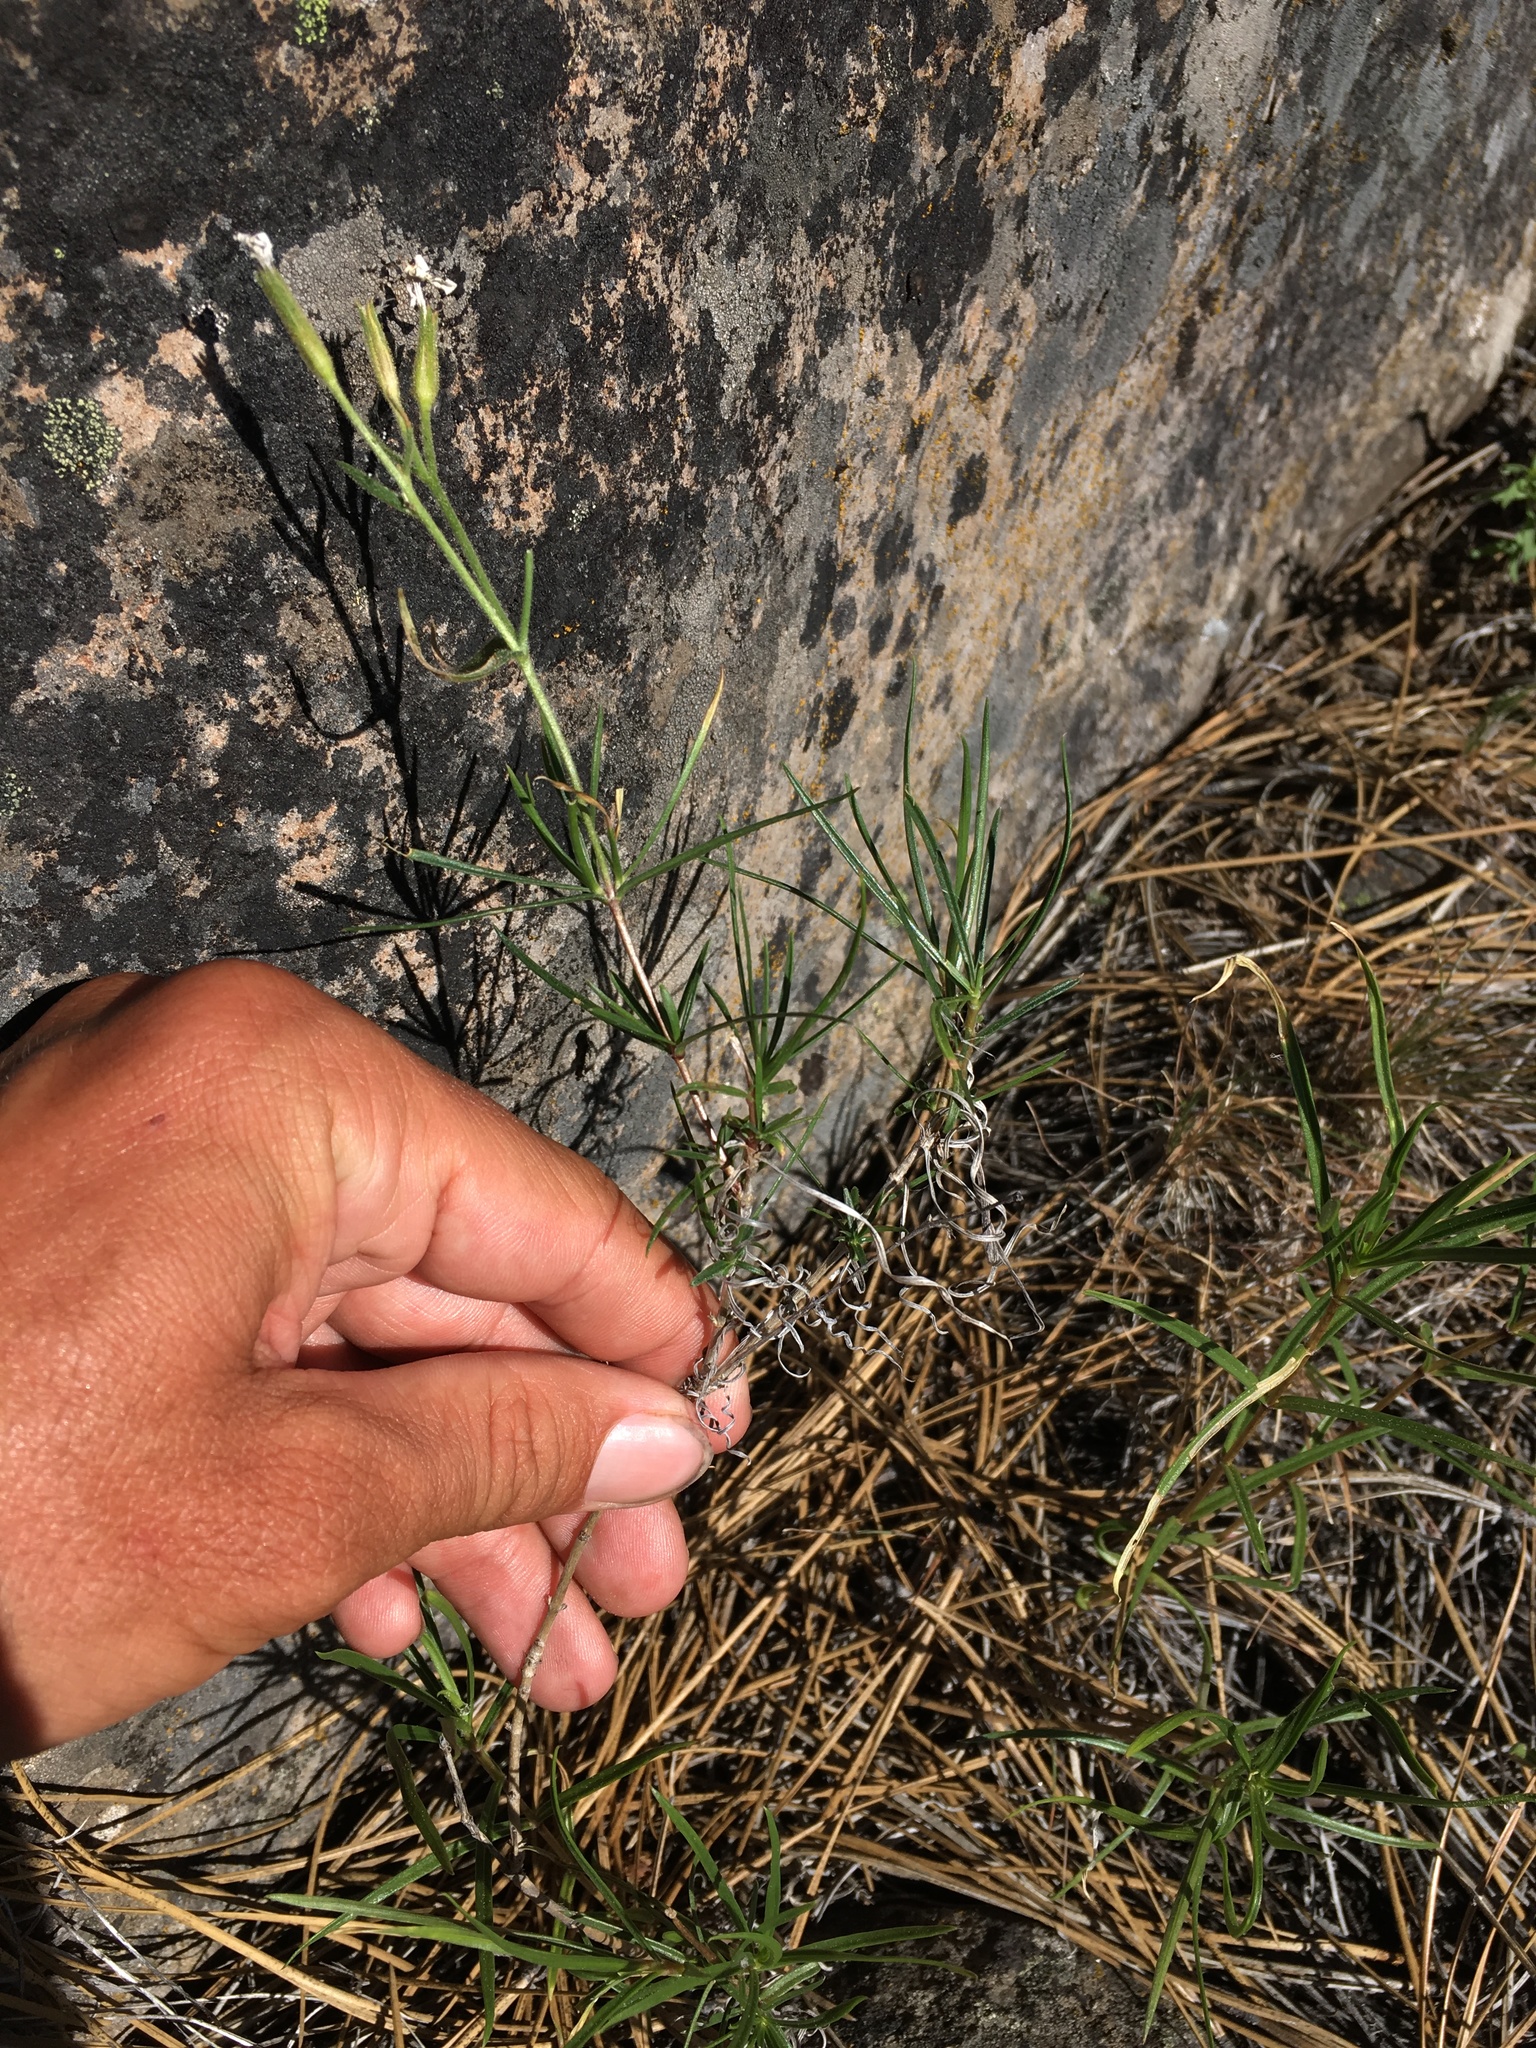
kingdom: Plantae
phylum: Tracheophyta
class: Magnoliopsida
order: Ericales
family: Polemoniaceae
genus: Phlox
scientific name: Phlox speciosa
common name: Bush phlox
